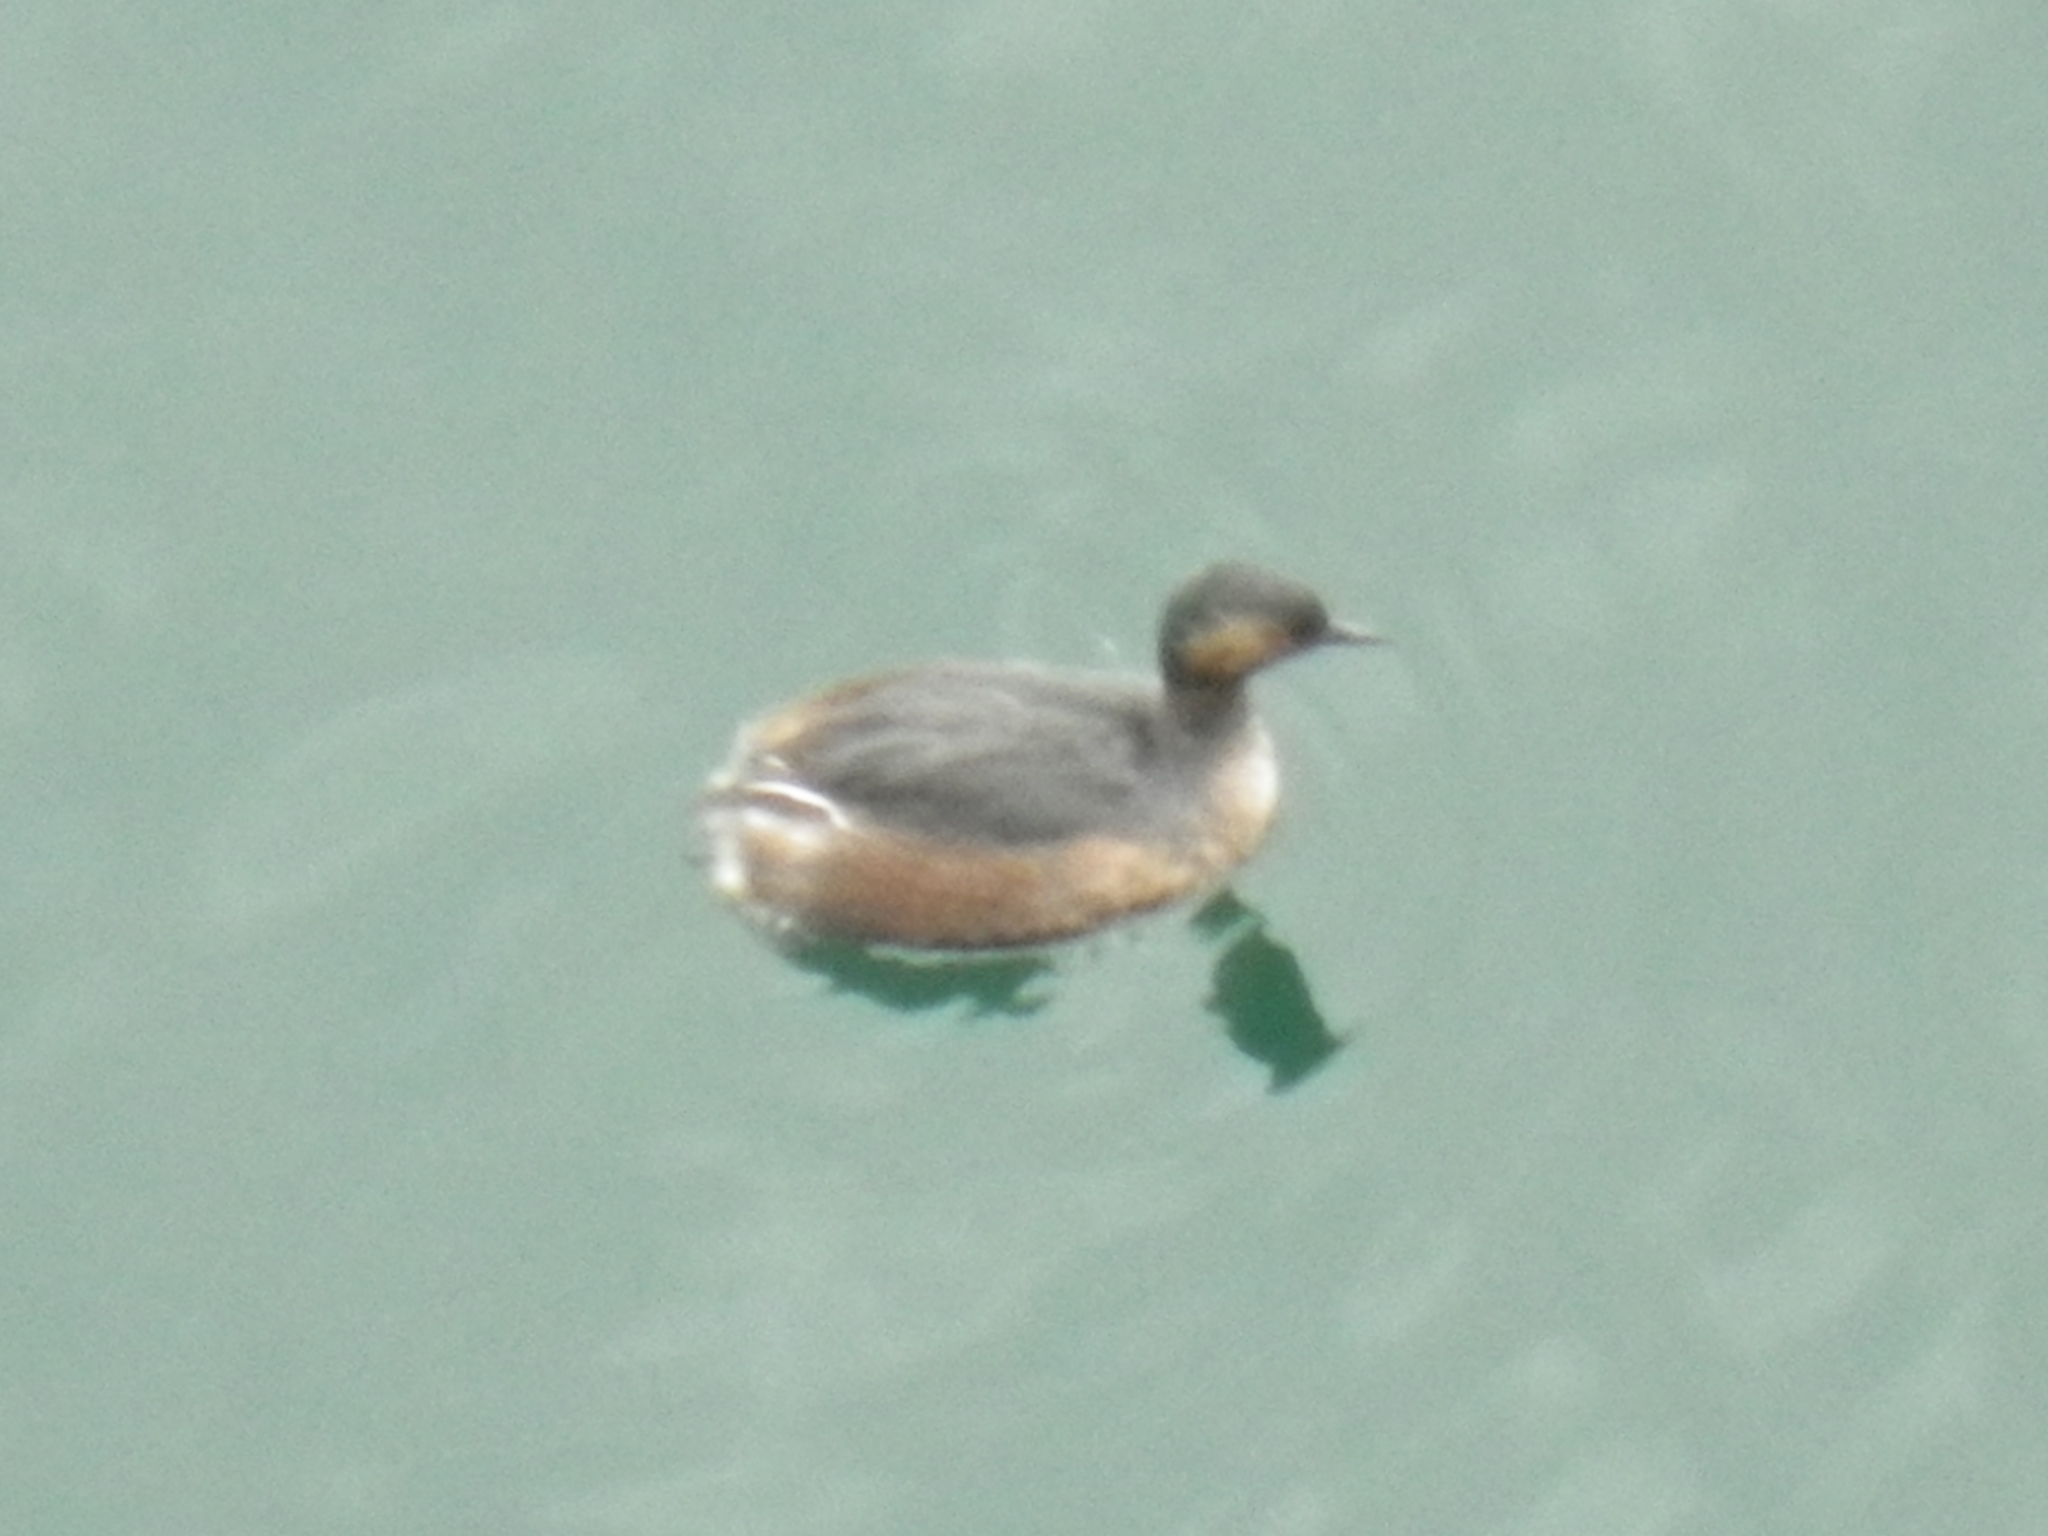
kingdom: Animalia
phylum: Chordata
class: Aves
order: Podicipediformes
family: Podicipedidae
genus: Podiceps
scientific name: Podiceps nigricollis
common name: Black-necked grebe
